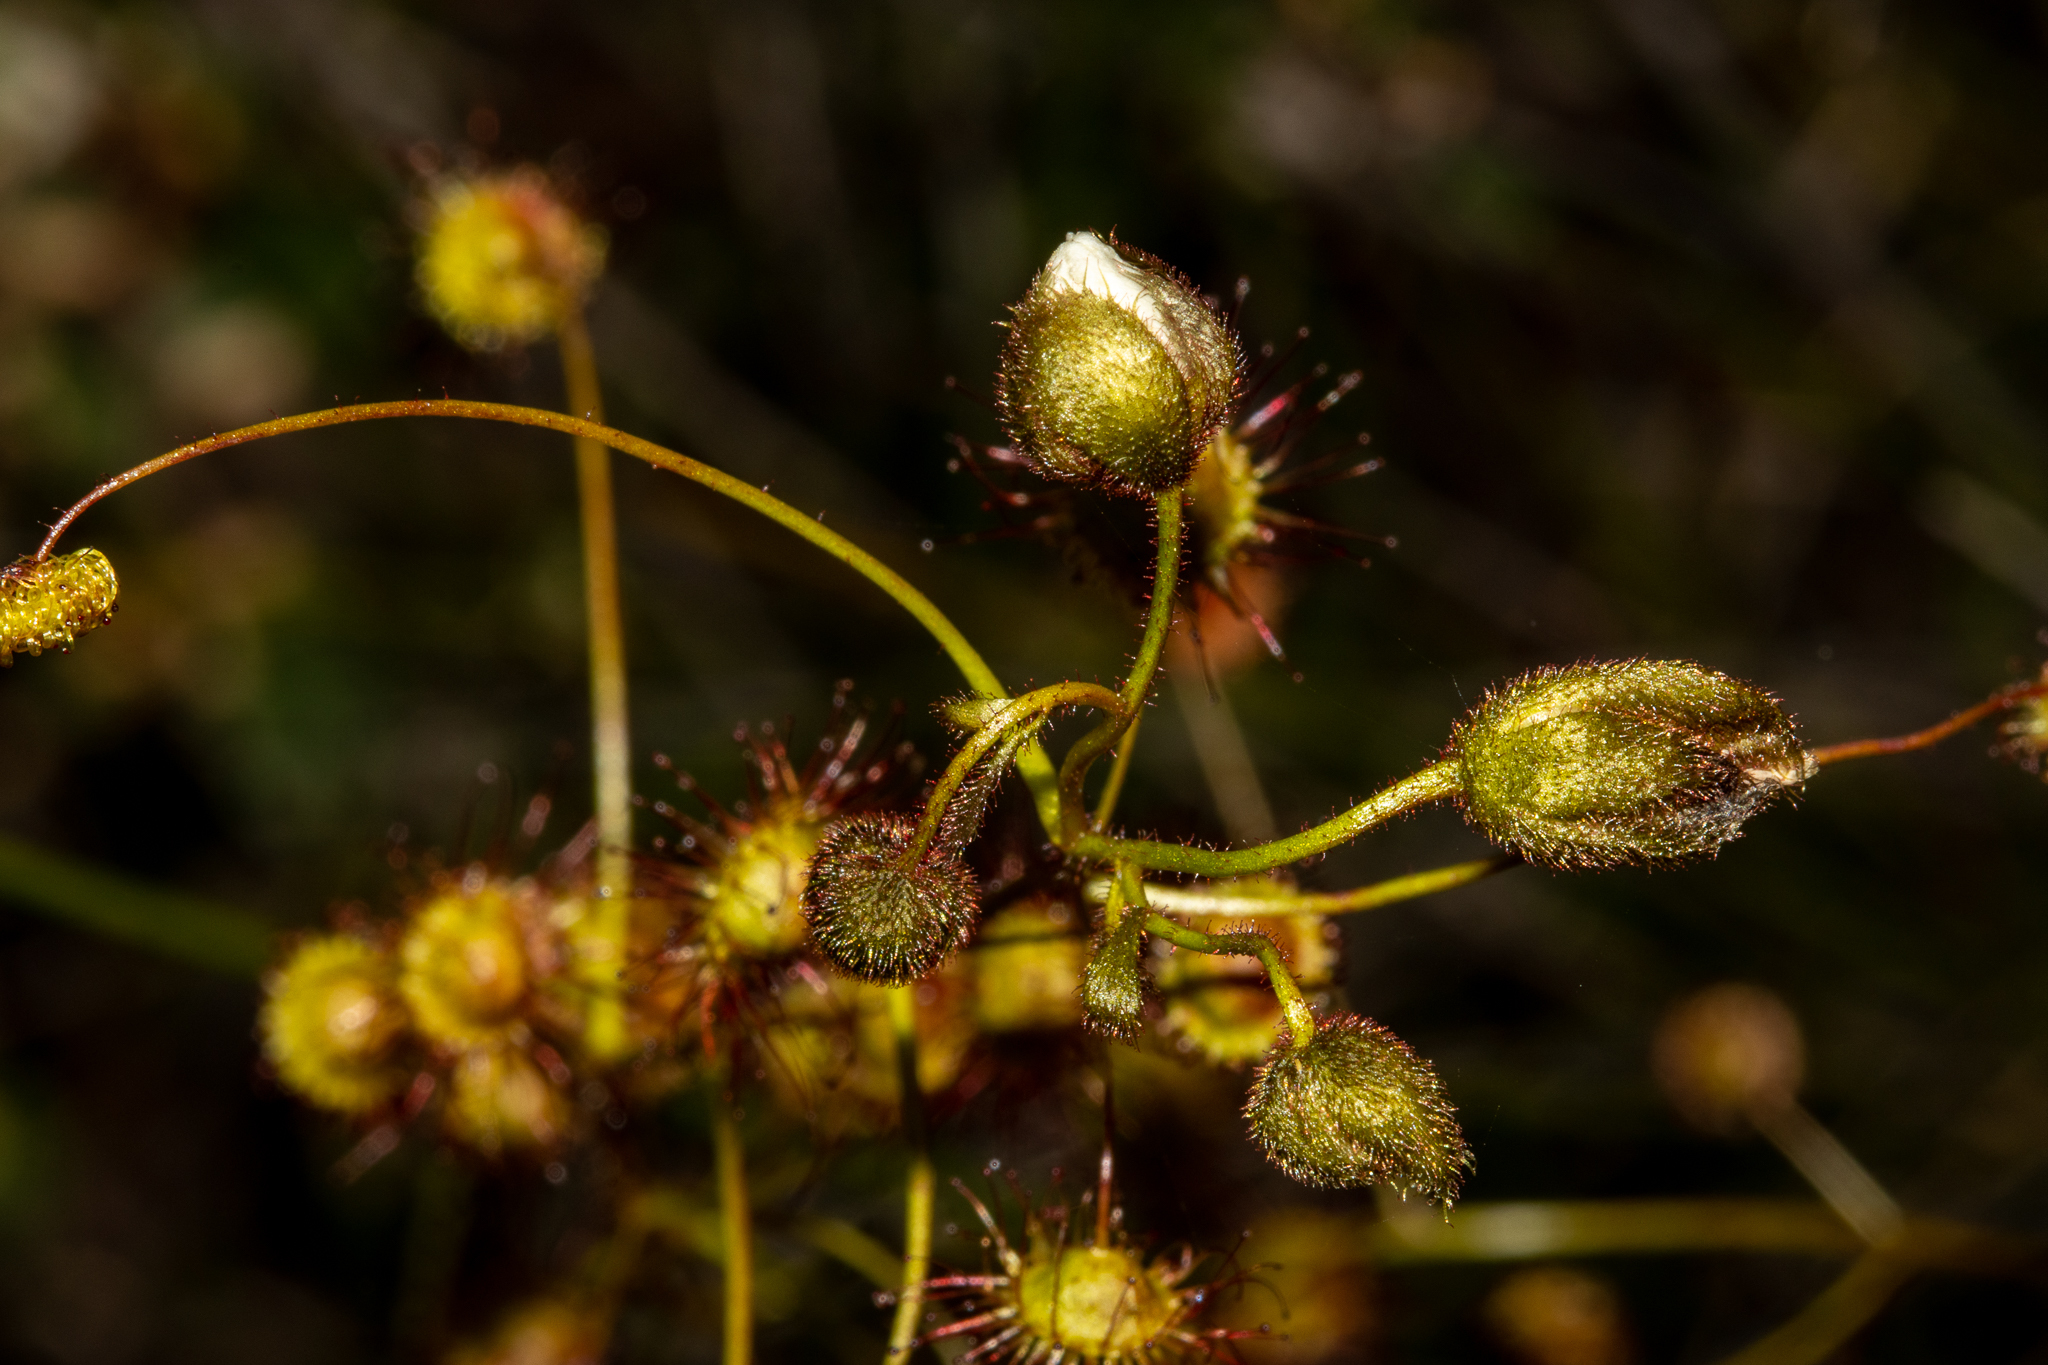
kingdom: Plantae
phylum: Tracheophyta
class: Magnoliopsida
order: Caryophyllales
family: Droseraceae
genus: Drosera
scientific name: Drosera planchonii
